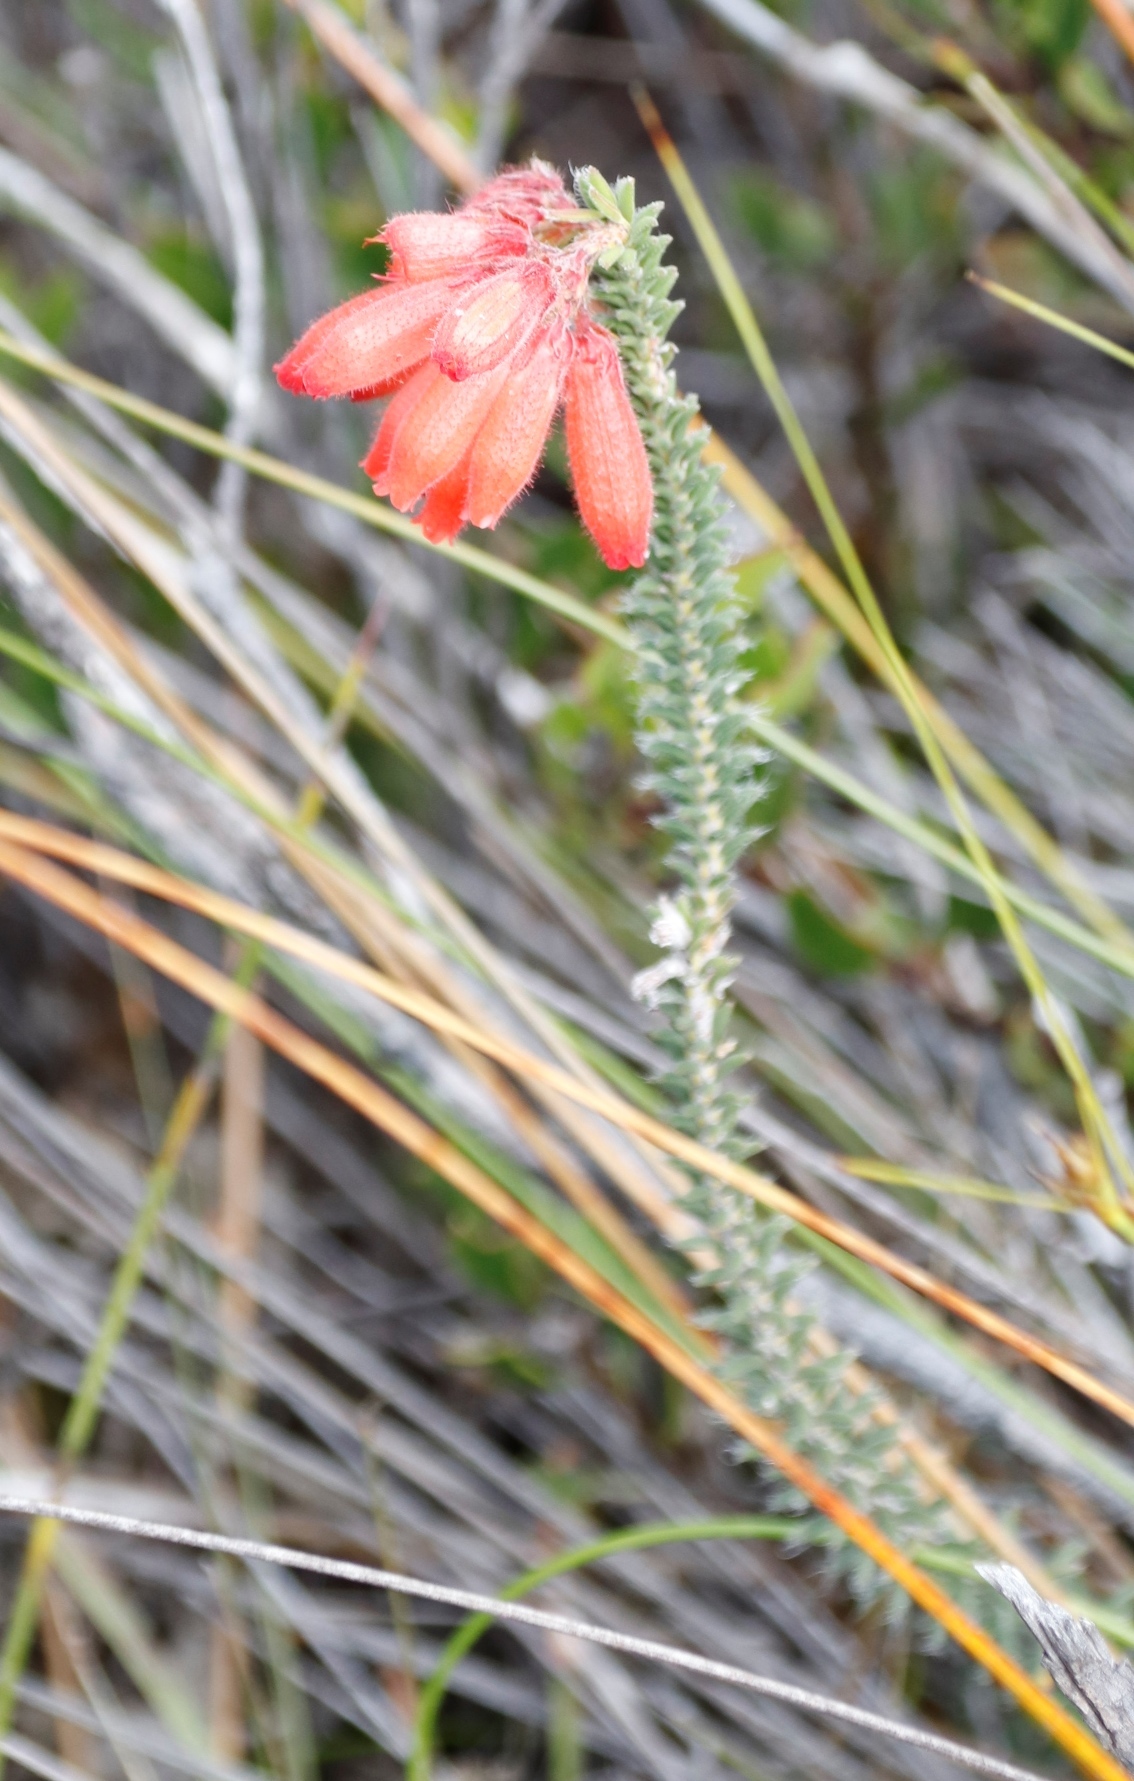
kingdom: Plantae
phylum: Tracheophyta
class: Magnoliopsida
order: Ericales
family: Ericaceae
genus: Erica
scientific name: Erica cerinthoides
